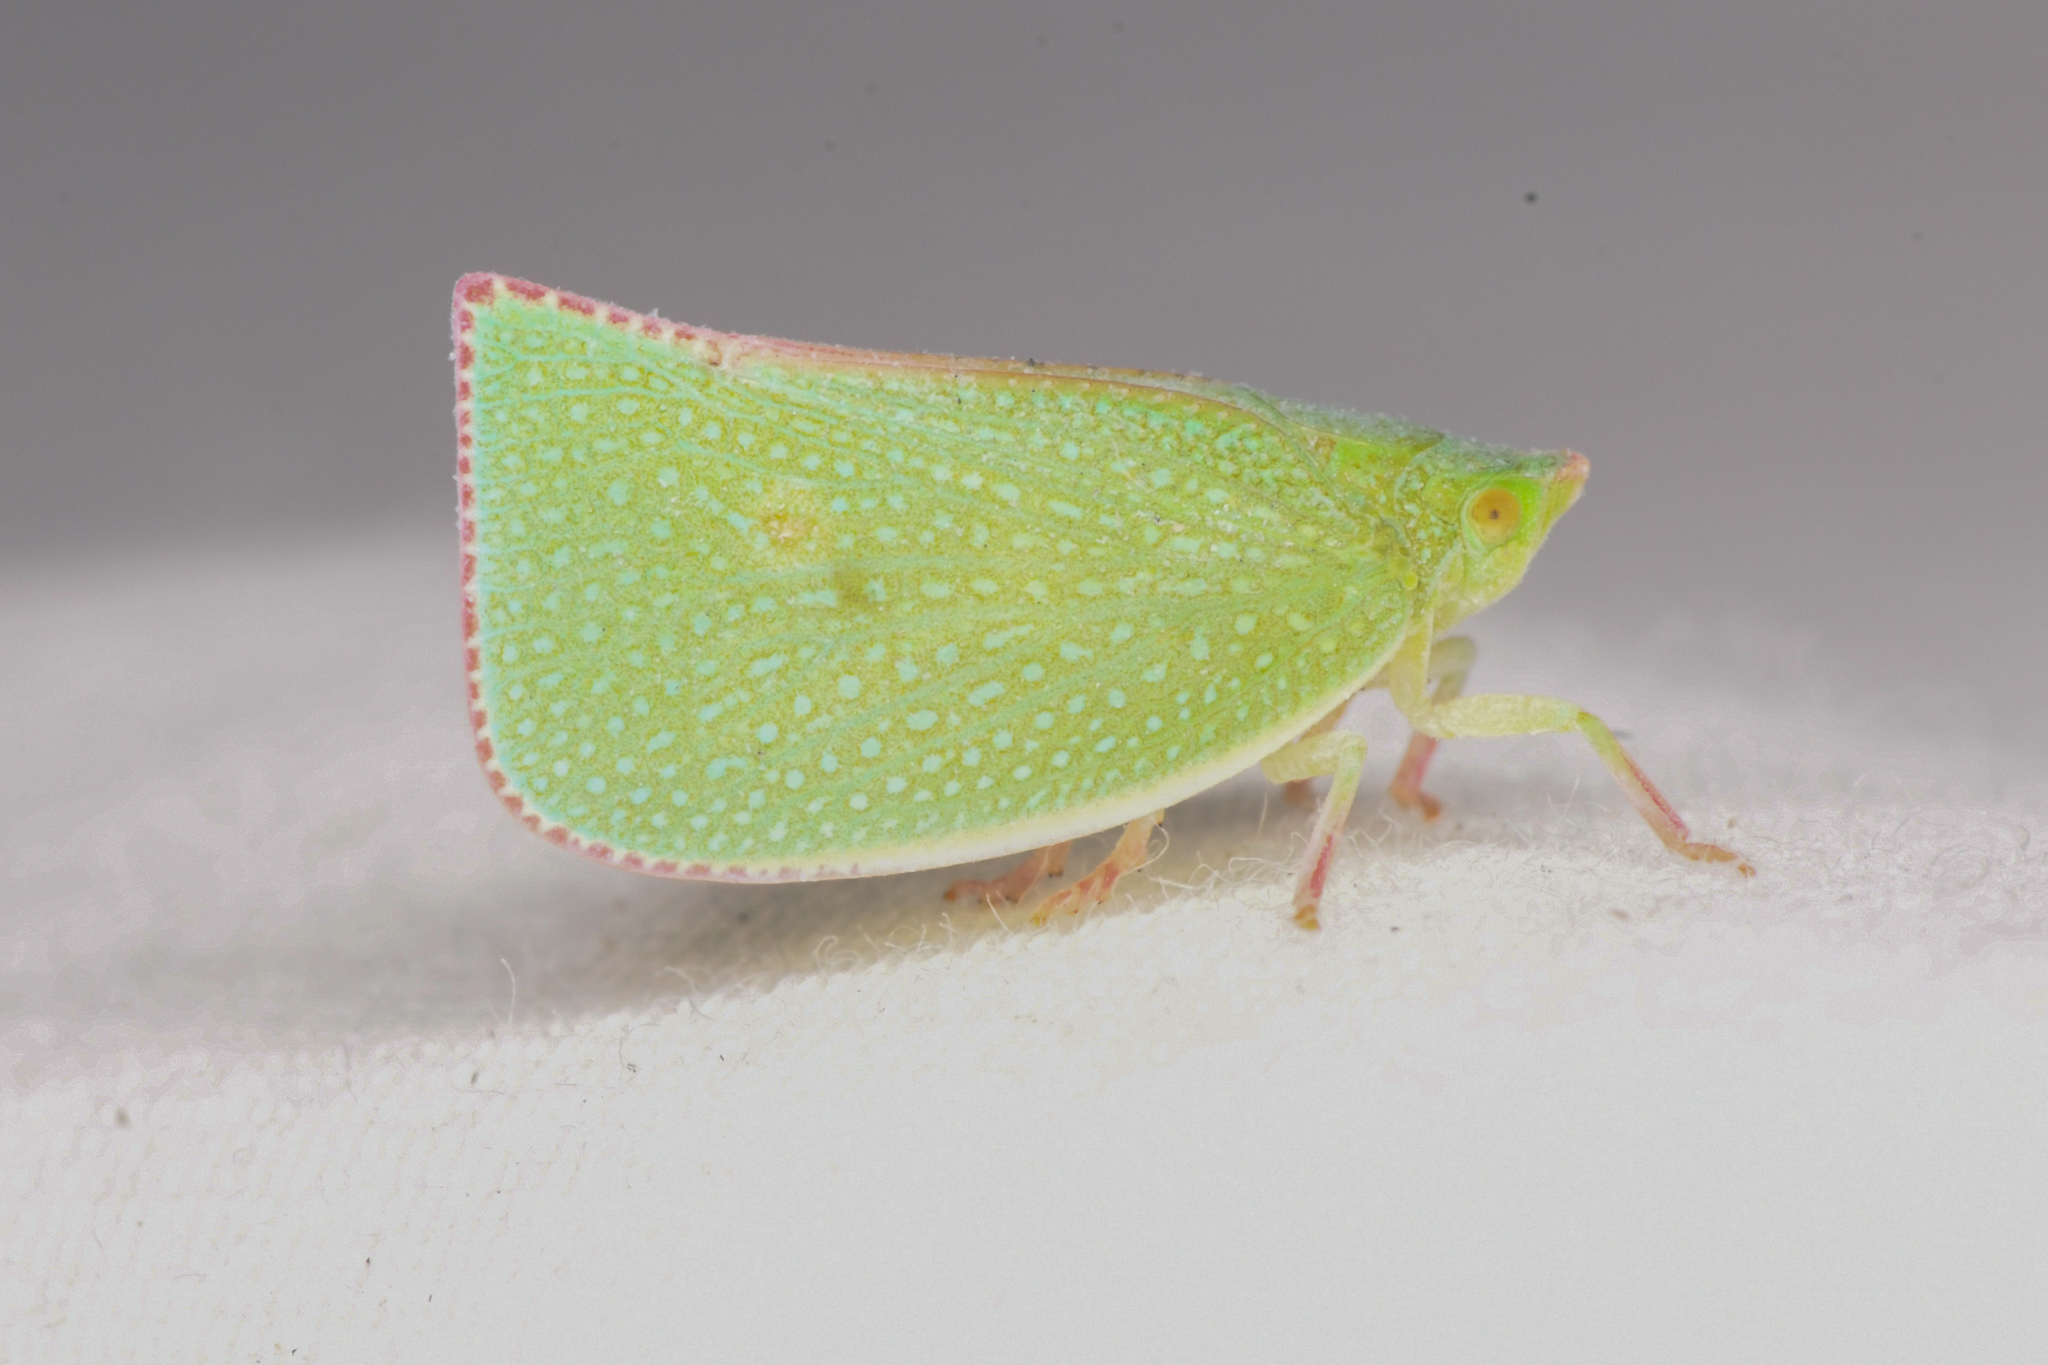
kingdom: Animalia
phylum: Arthropoda
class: Insecta
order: Hemiptera
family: Flatidae
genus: Siphanta
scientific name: Siphanta acuta
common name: Torpedo bug
